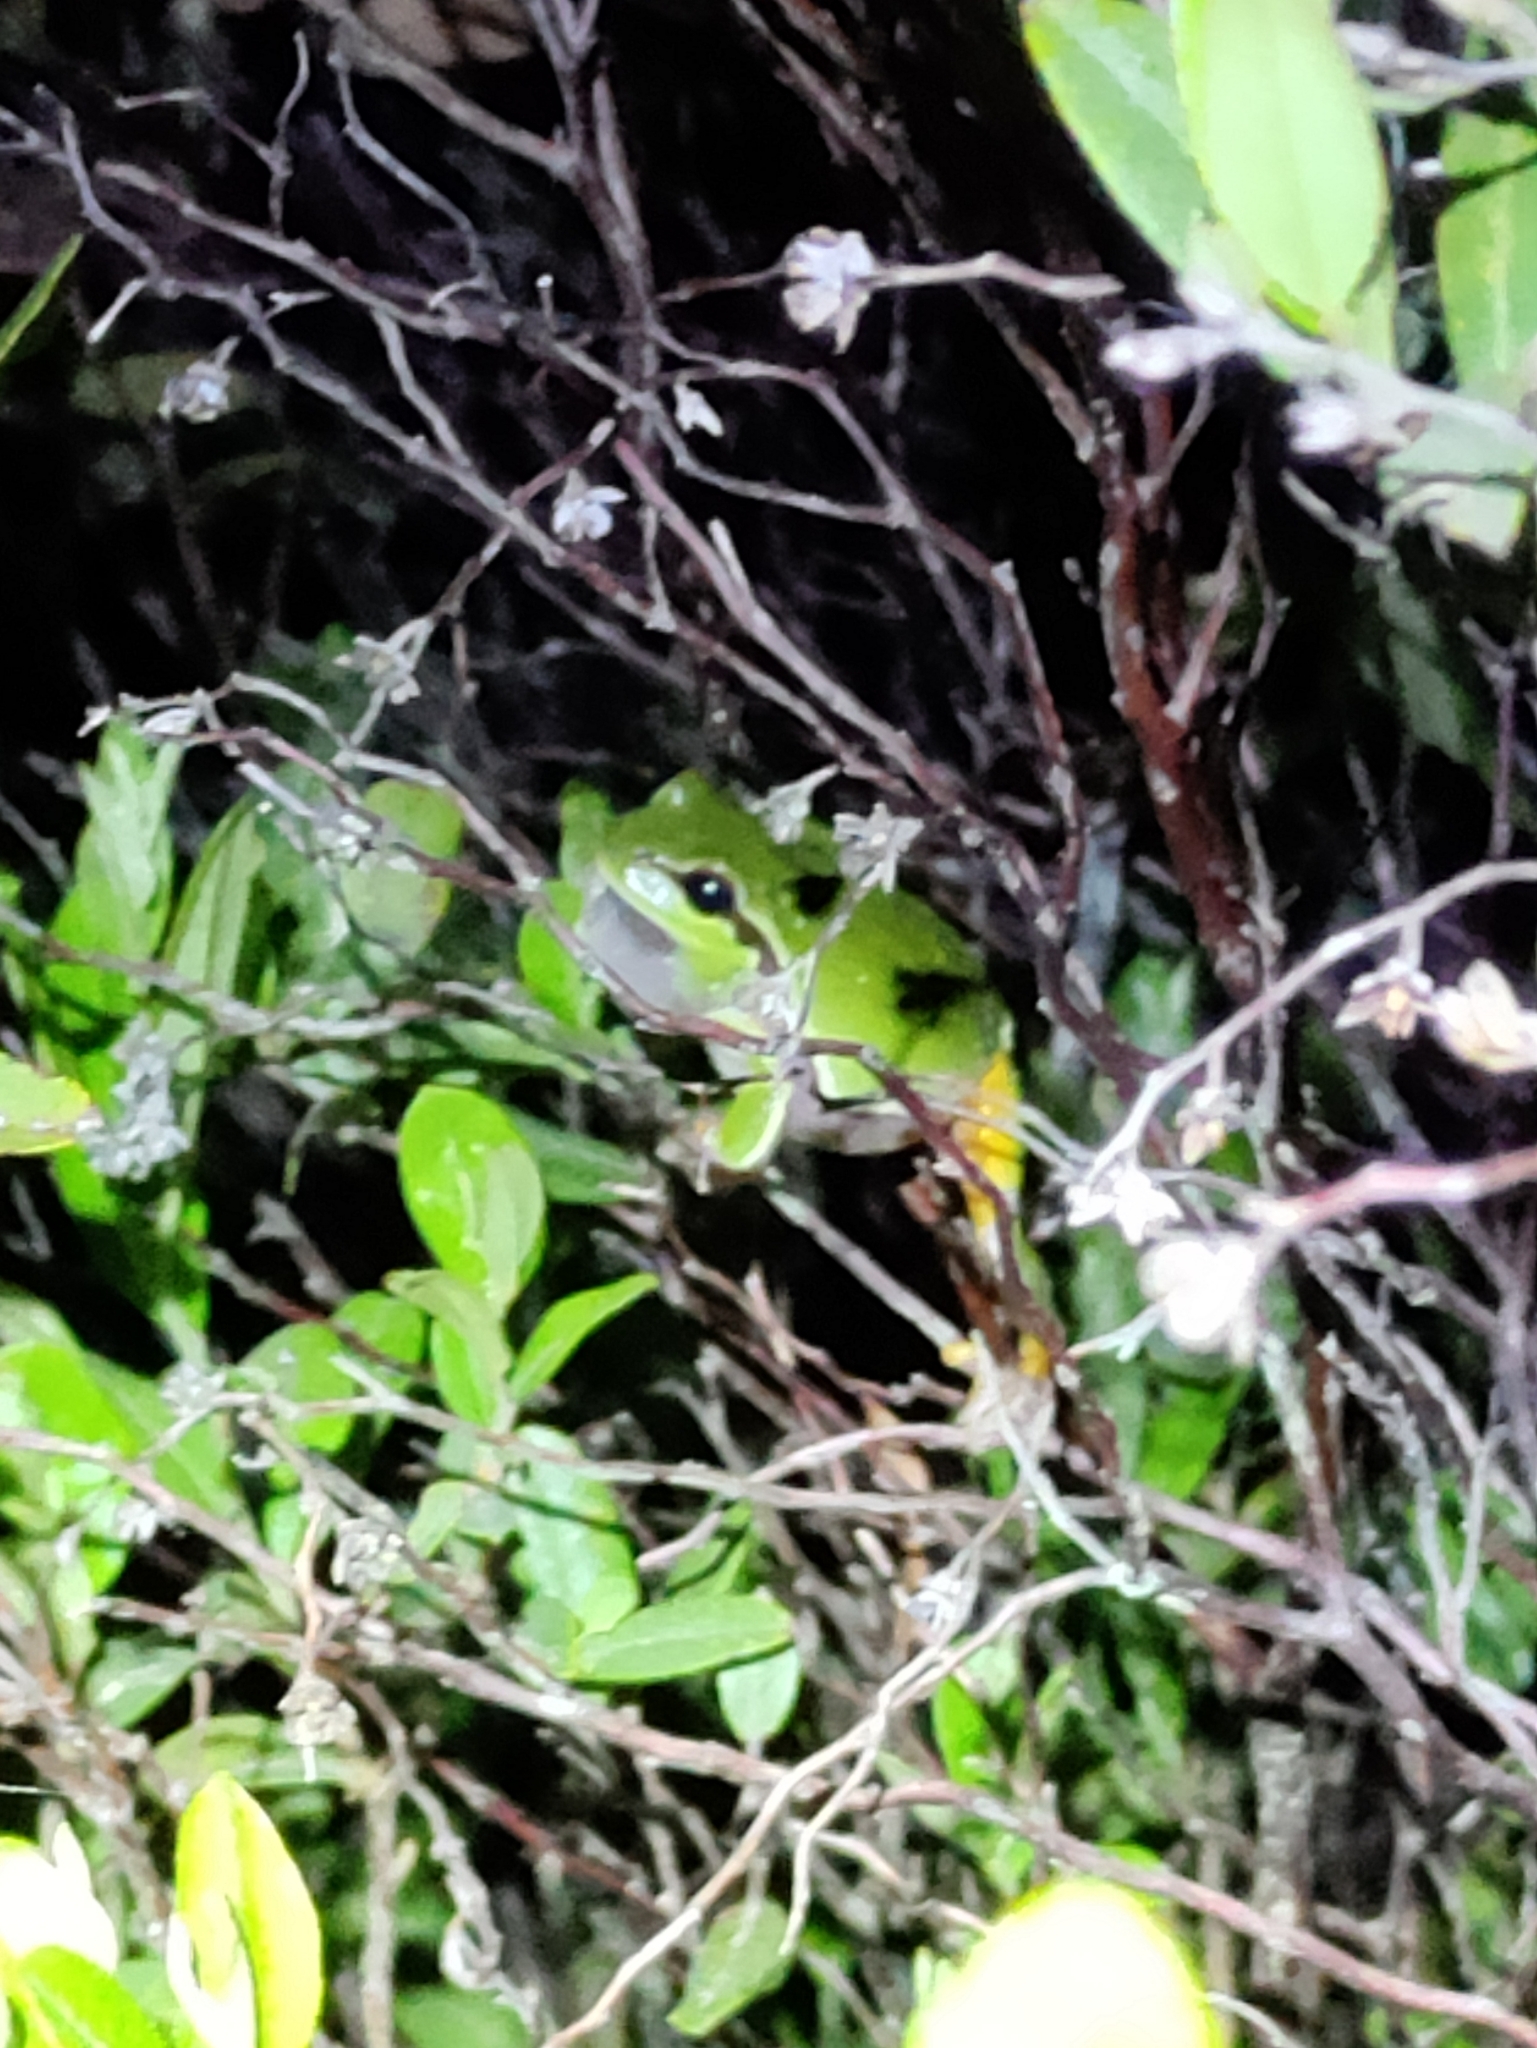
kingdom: Animalia
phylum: Chordata
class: Amphibia
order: Anura
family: Hylidae
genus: Dryophytes
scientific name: Dryophytes andersonii
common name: Pine barrens treefrog
